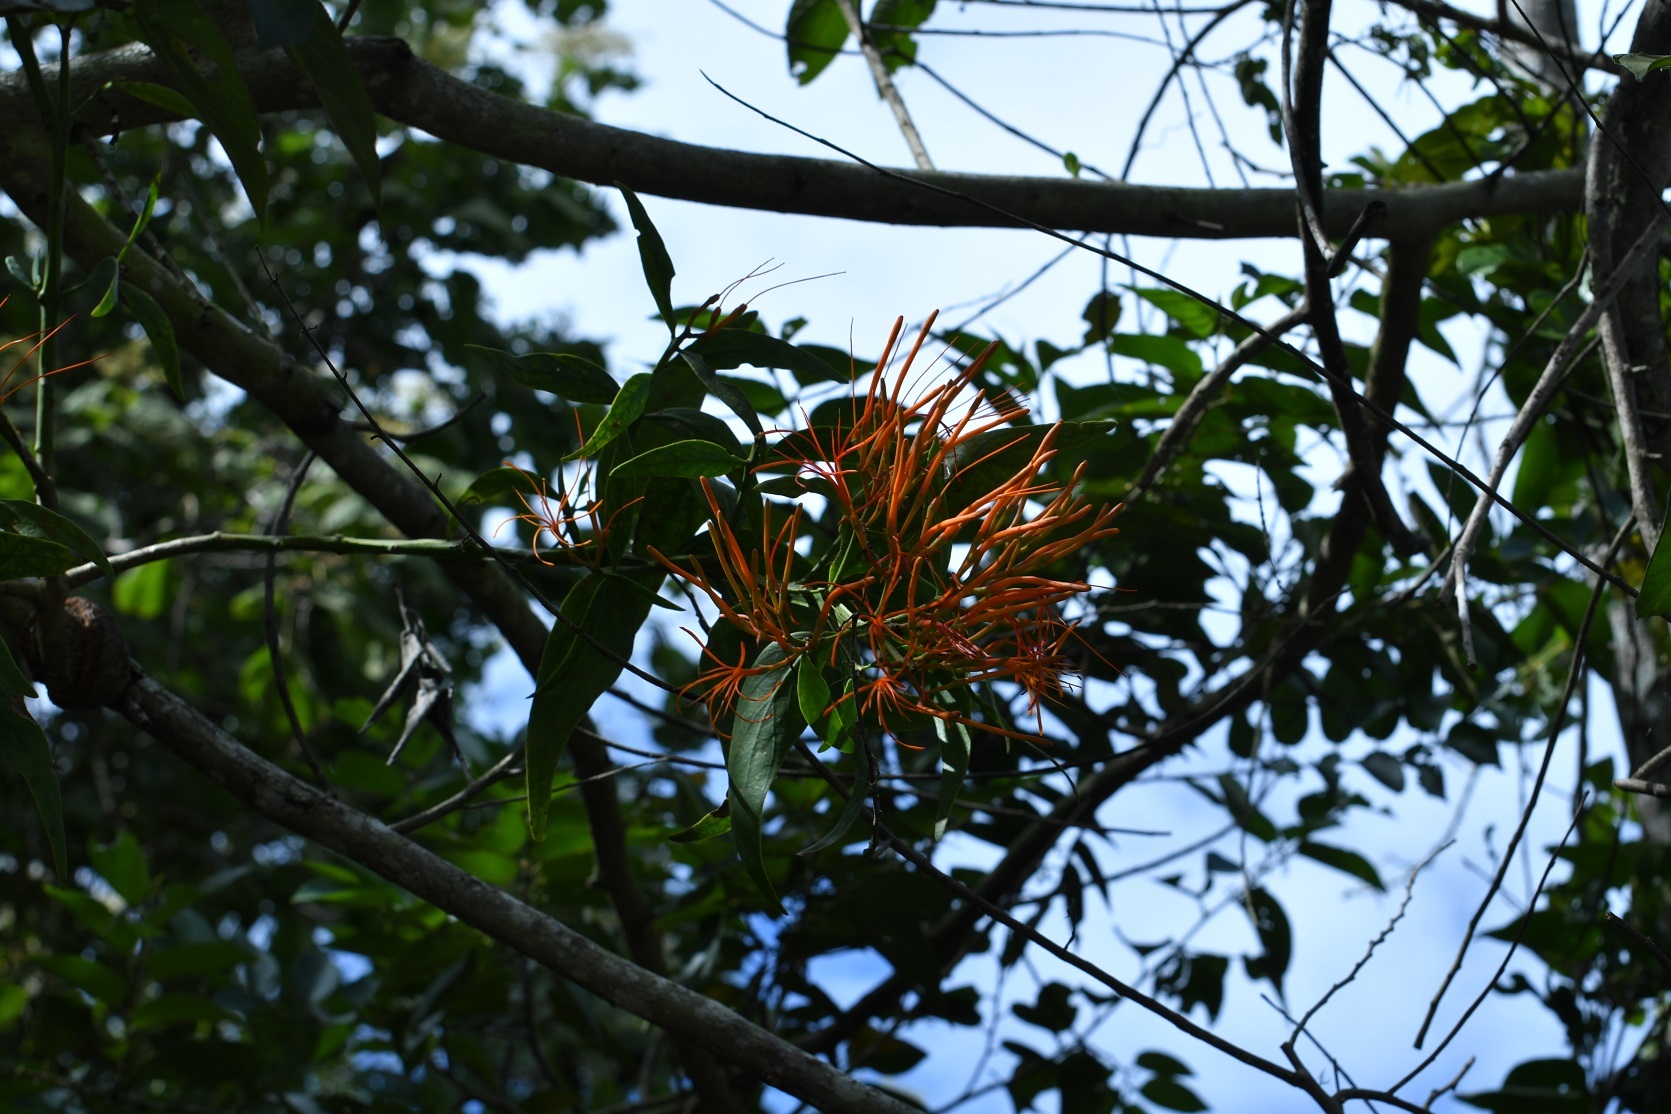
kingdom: Plantae
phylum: Tracheophyta
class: Magnoliopsida
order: Santalales
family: Loranthaceae
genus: Psittacanthus
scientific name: Psittacanthus calyculatus
